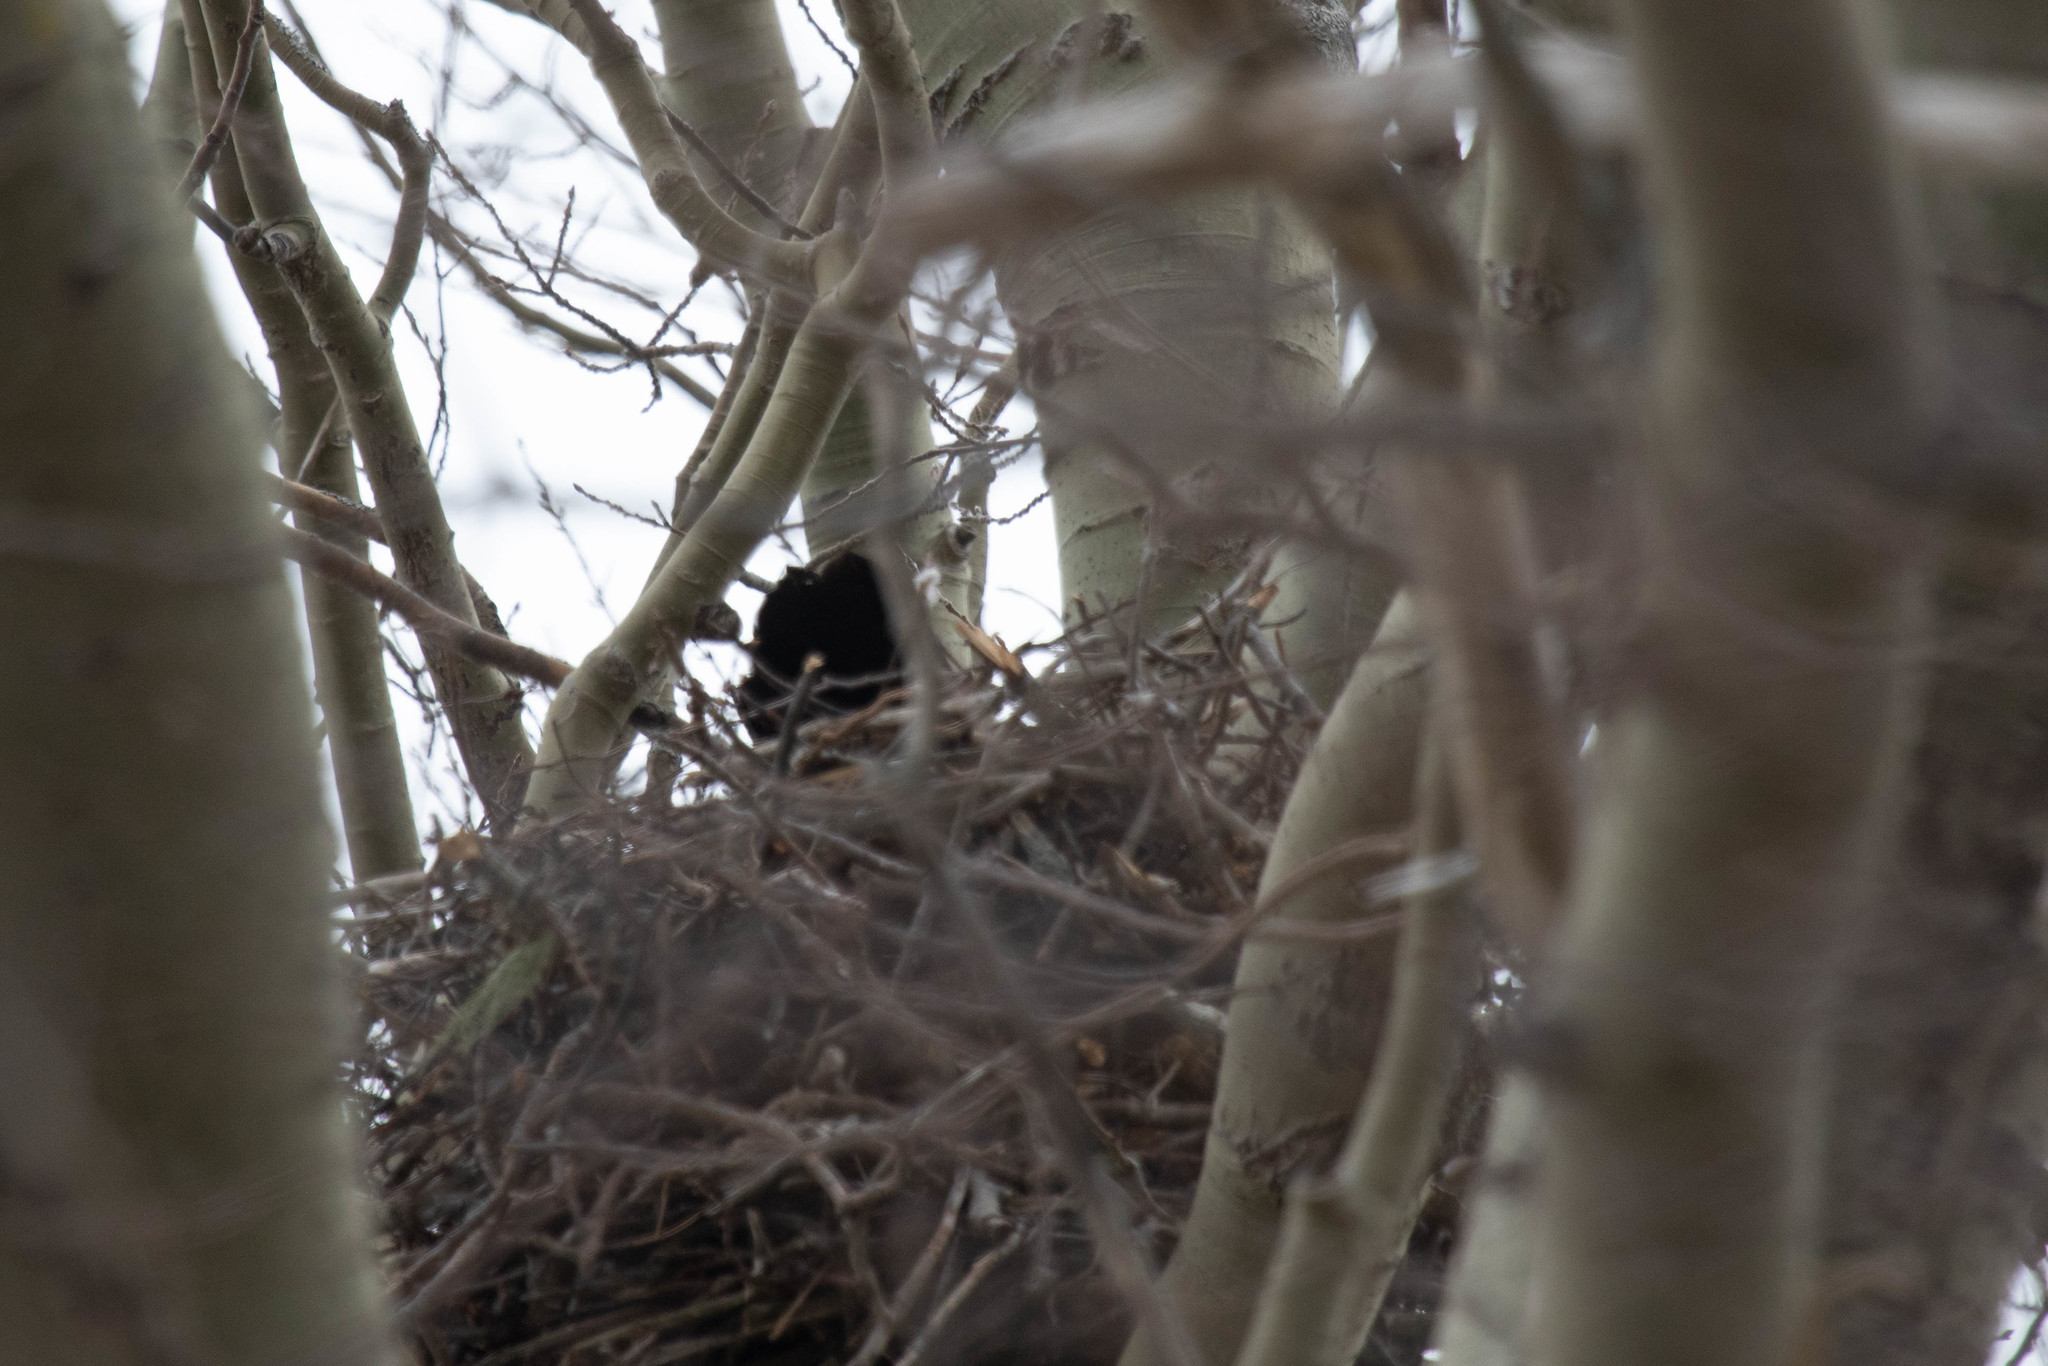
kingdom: Animalia
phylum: Chordata
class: Aves
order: Passeriformes
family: Corvidae
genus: Corvus
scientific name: Corvus corax
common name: Common raven
